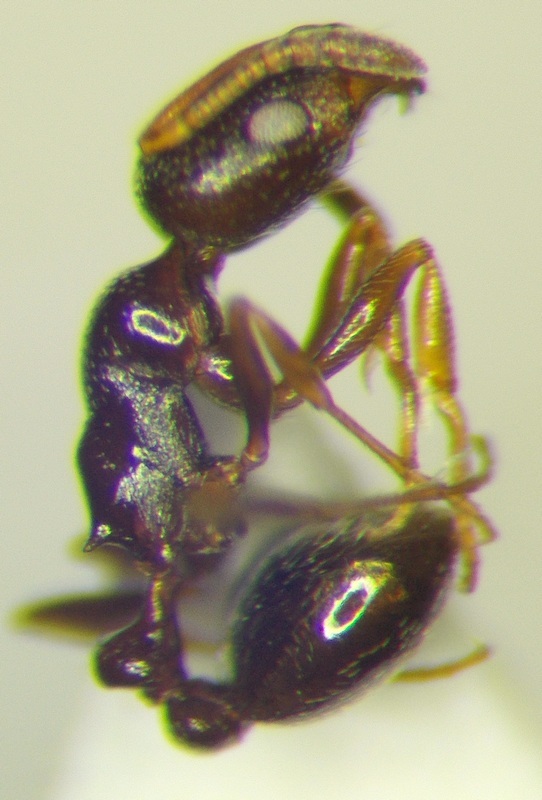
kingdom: Animalia
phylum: Arthropoda
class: Insecta
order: Hymenoptera
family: Formicidae
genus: Cardiocondyla
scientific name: Cardiocondyla sahlbergi
